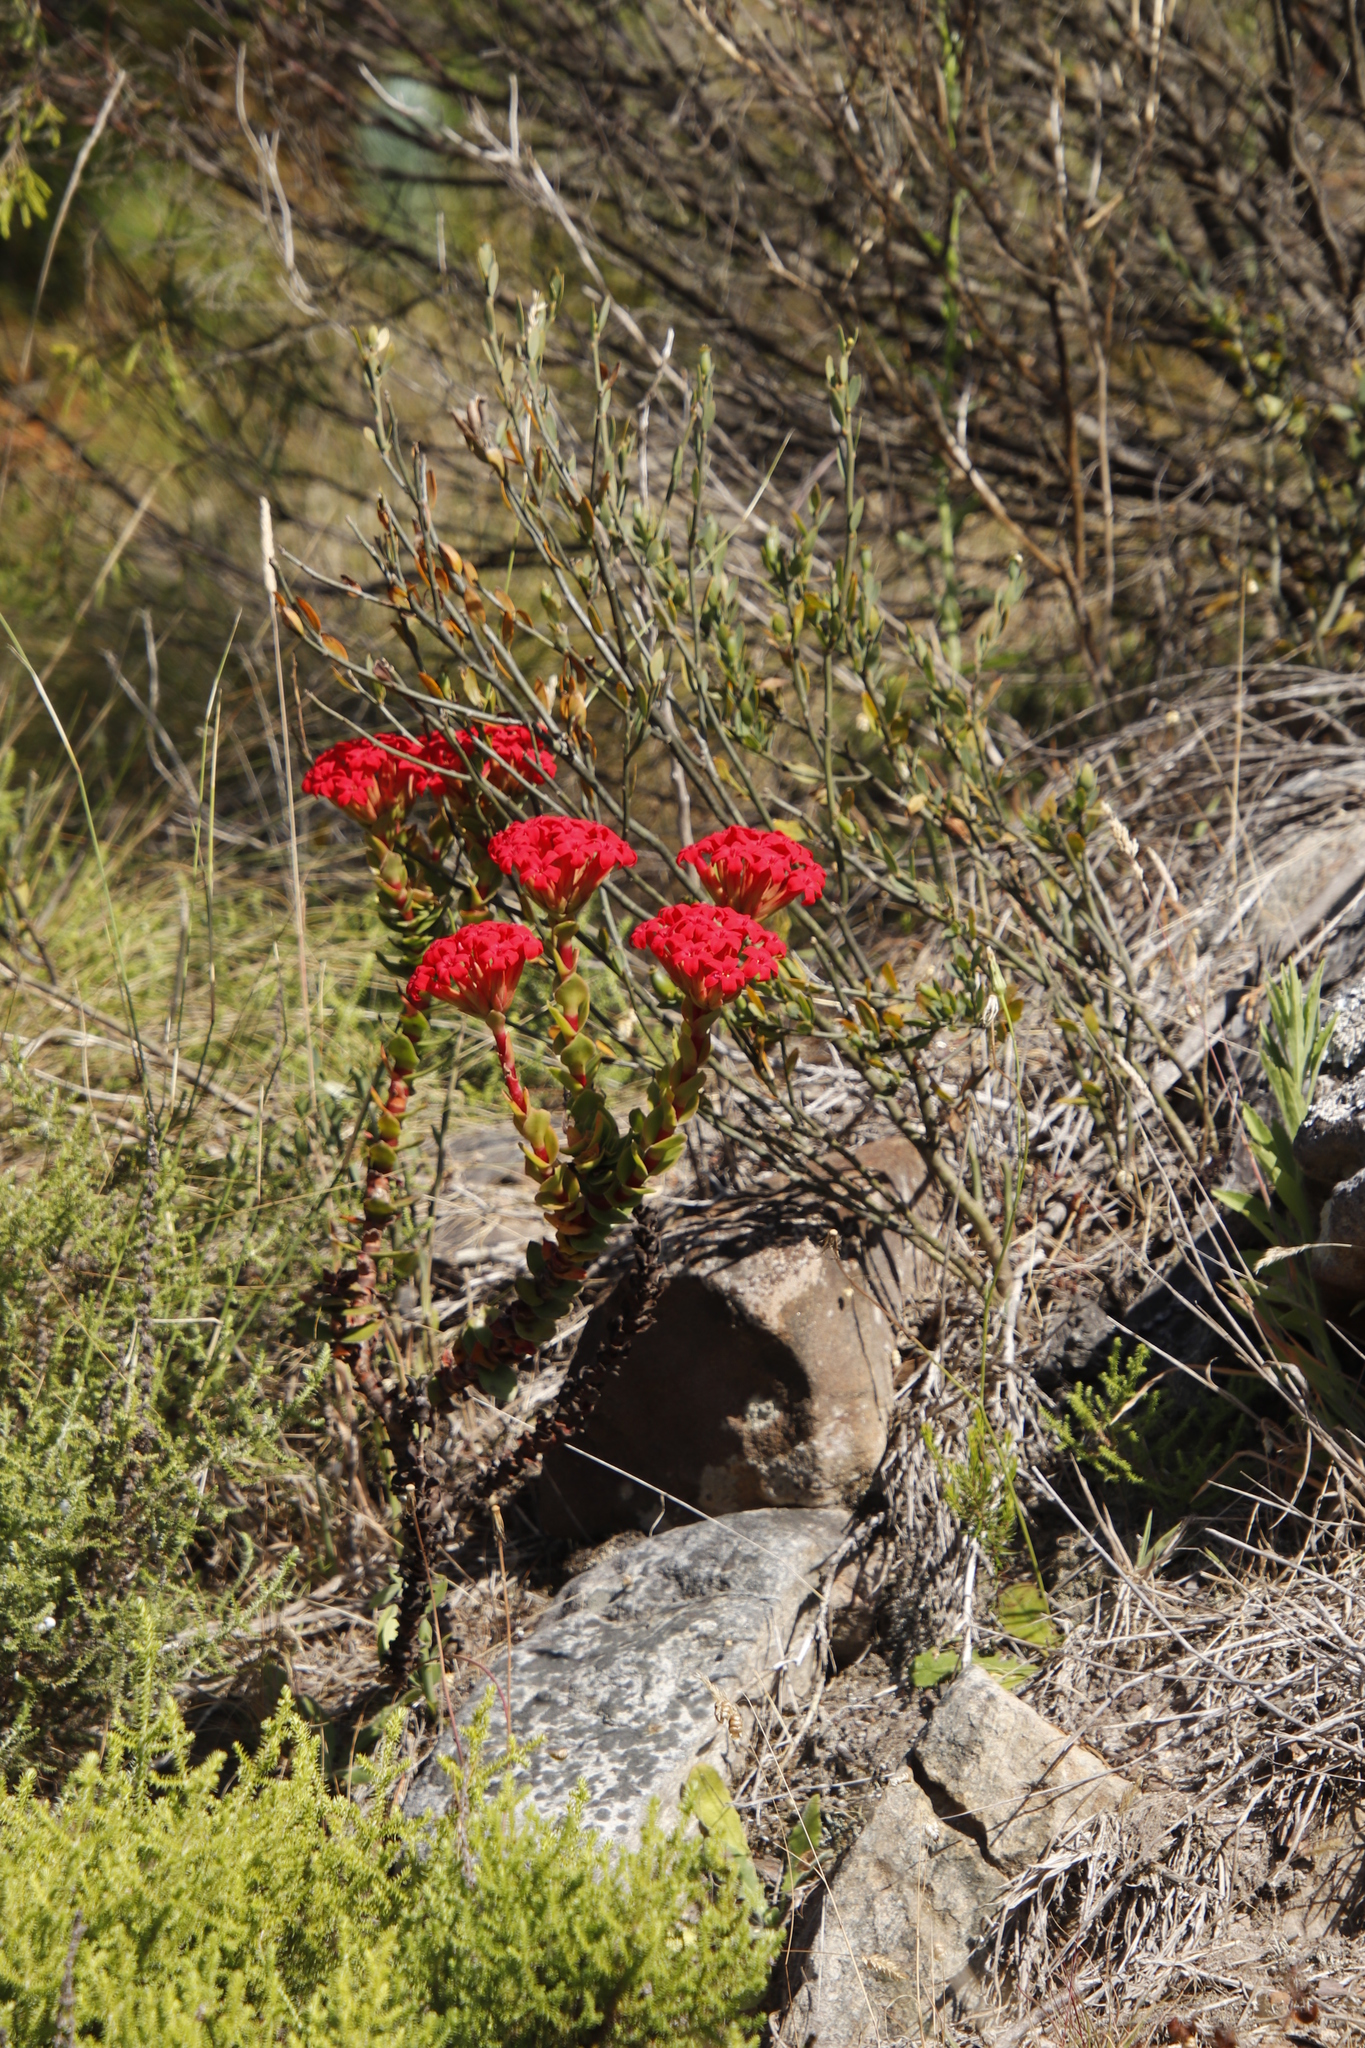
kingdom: Plantae
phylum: Tracheophyta
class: Magnoliopsida
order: Saxifragales
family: Crassulaceae
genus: Crassula
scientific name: Crassula coccinea
